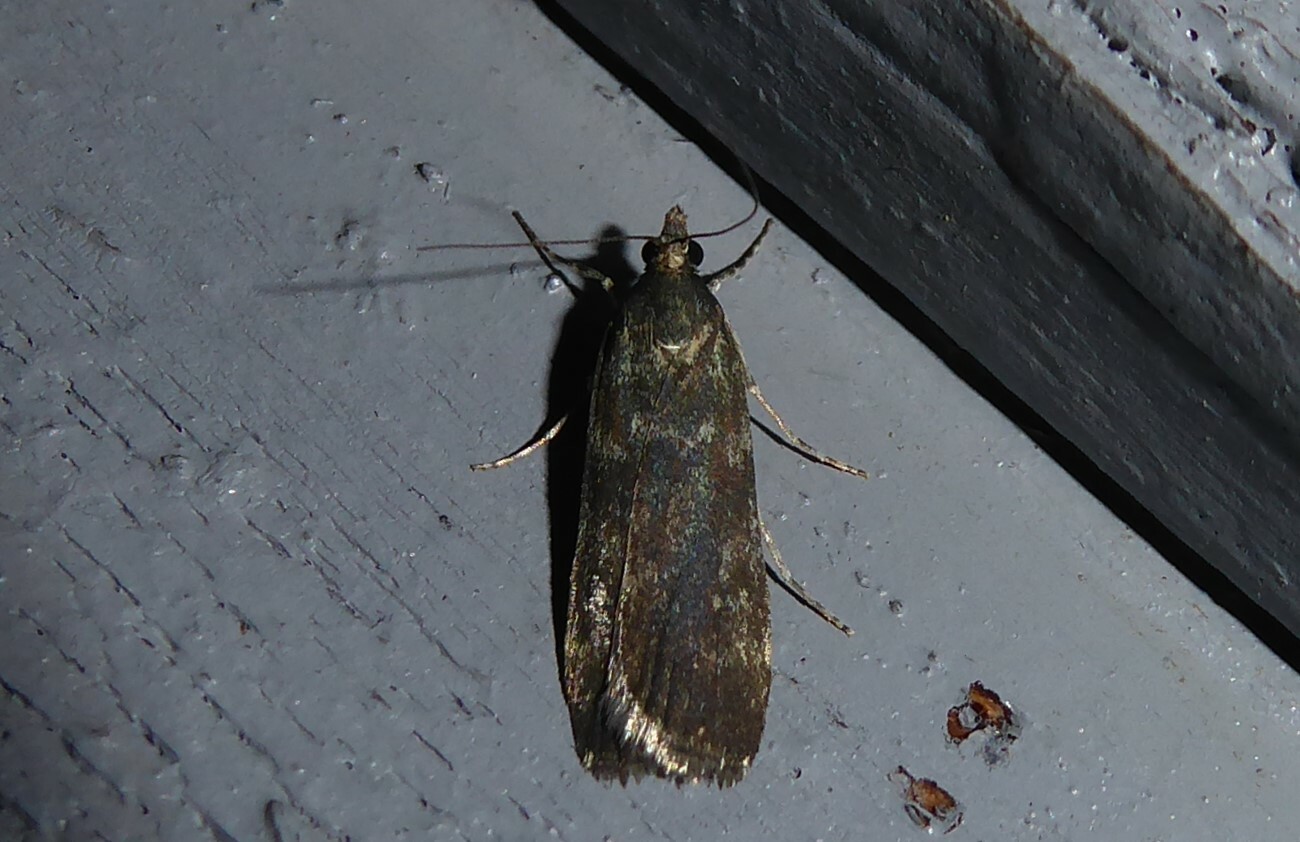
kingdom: Animalia
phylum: Arthropoda
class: Insecta
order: Lepidoptera
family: Crambidae
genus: Eudonia
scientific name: Eudonia cataxesta
